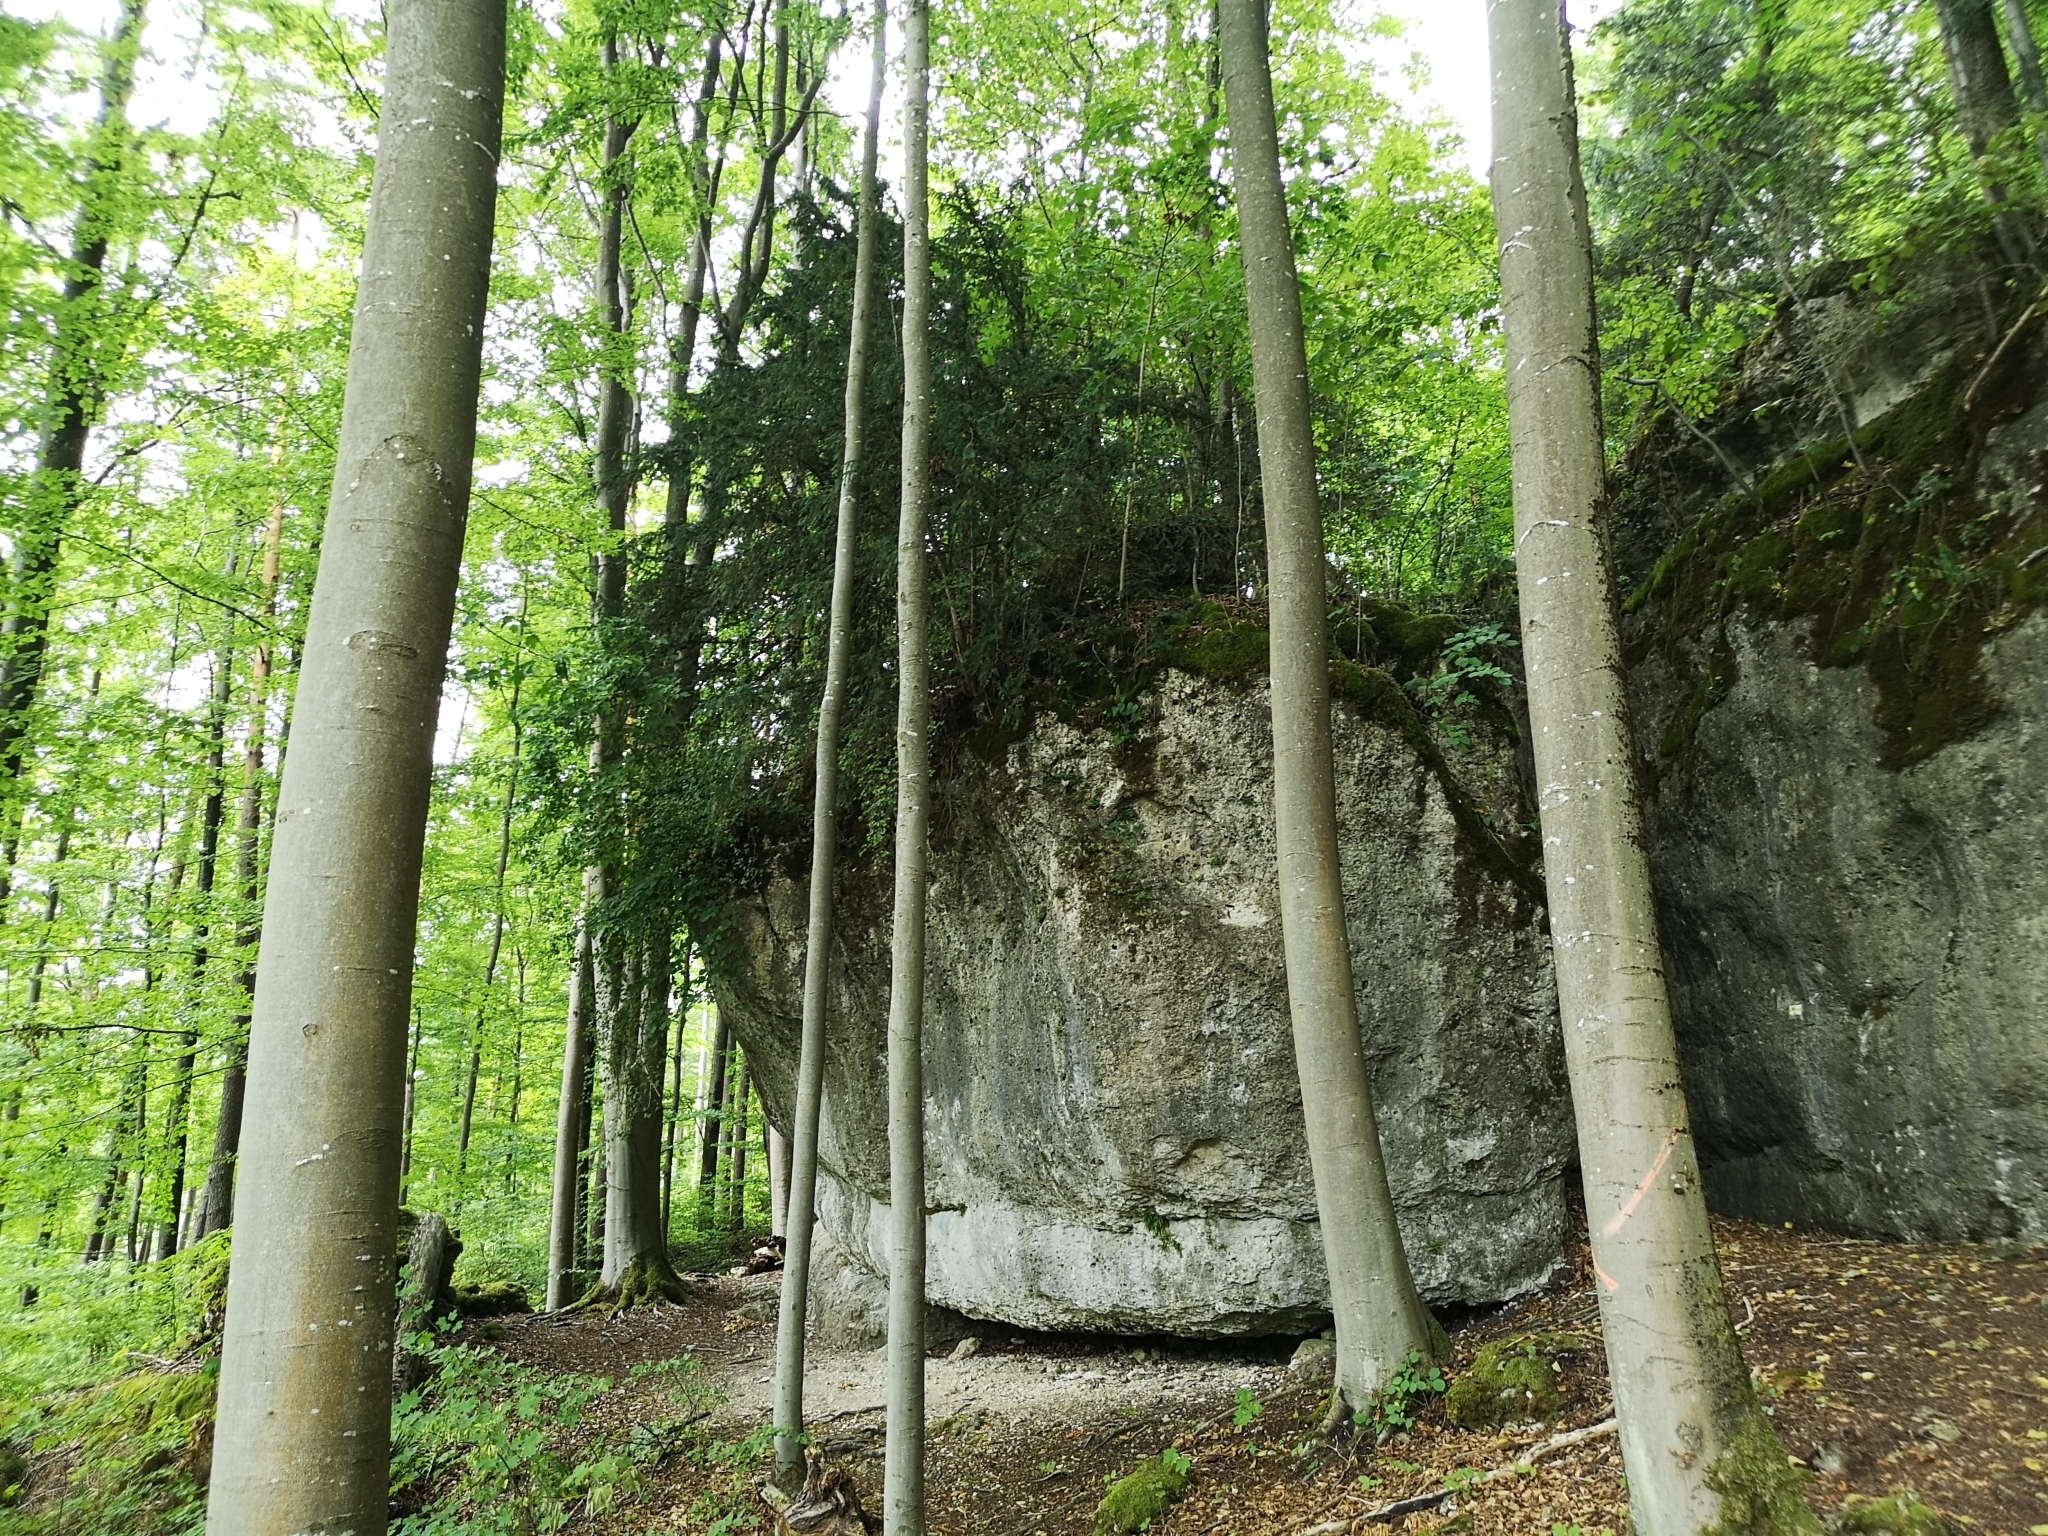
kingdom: Plantae
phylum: Tracheophyta
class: Pinopsida
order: Pinales
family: Taxaceae
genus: Taxus
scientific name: Taxus baccata
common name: Yew
